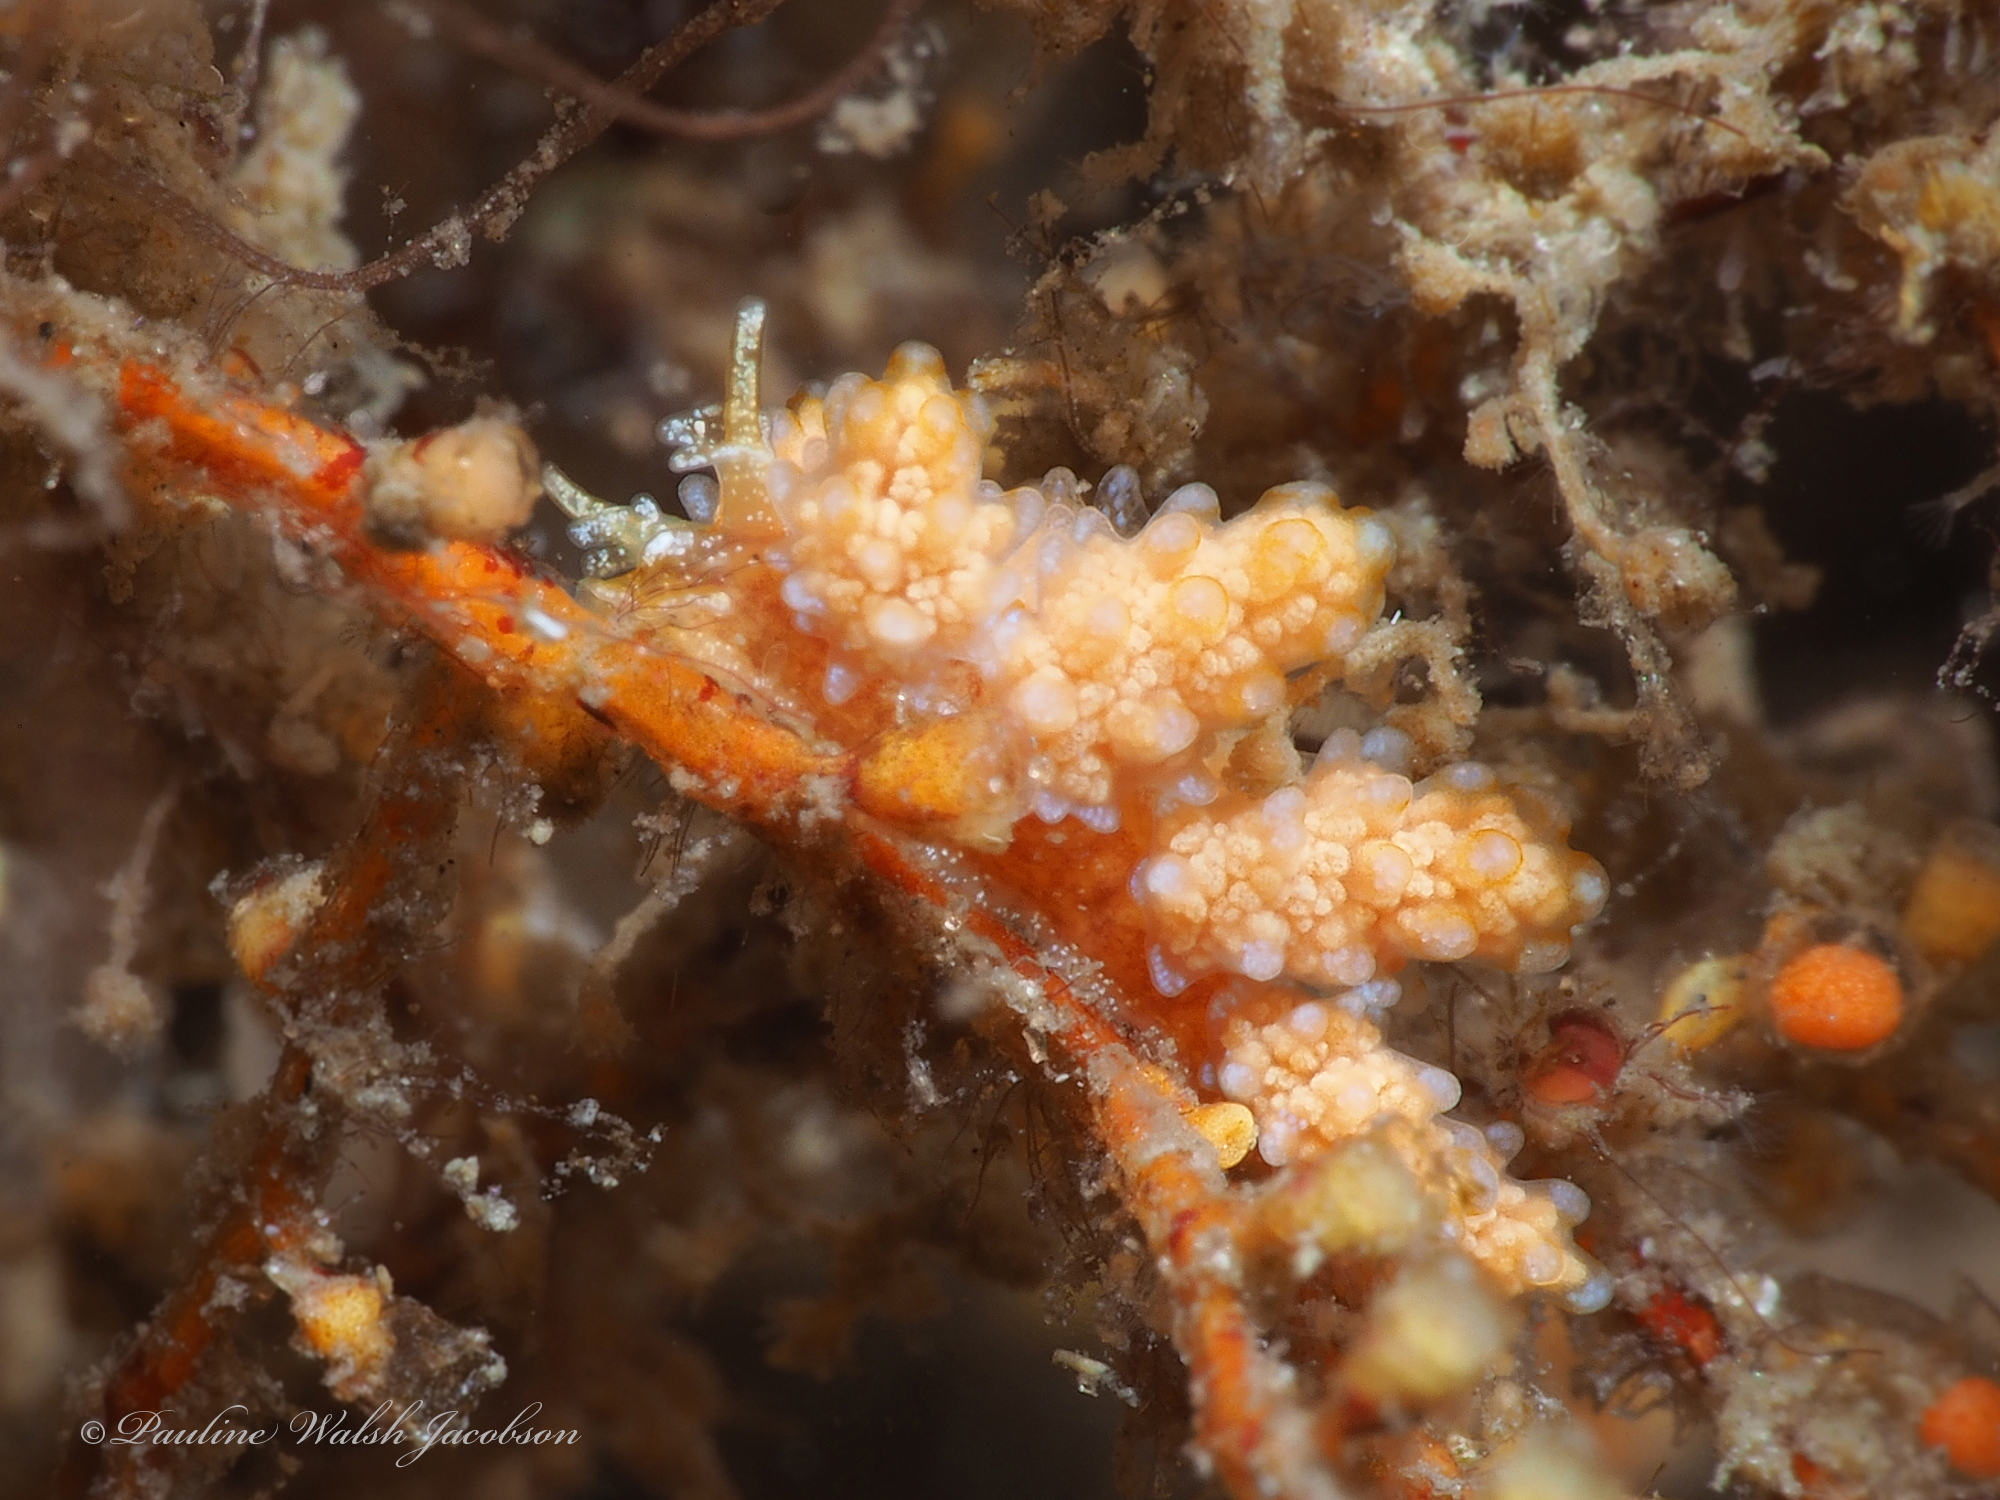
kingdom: Animalia
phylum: Mollusca
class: Gastropoda
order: Nudibranchia
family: Dotidae
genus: Doto
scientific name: Doto torrelavega
